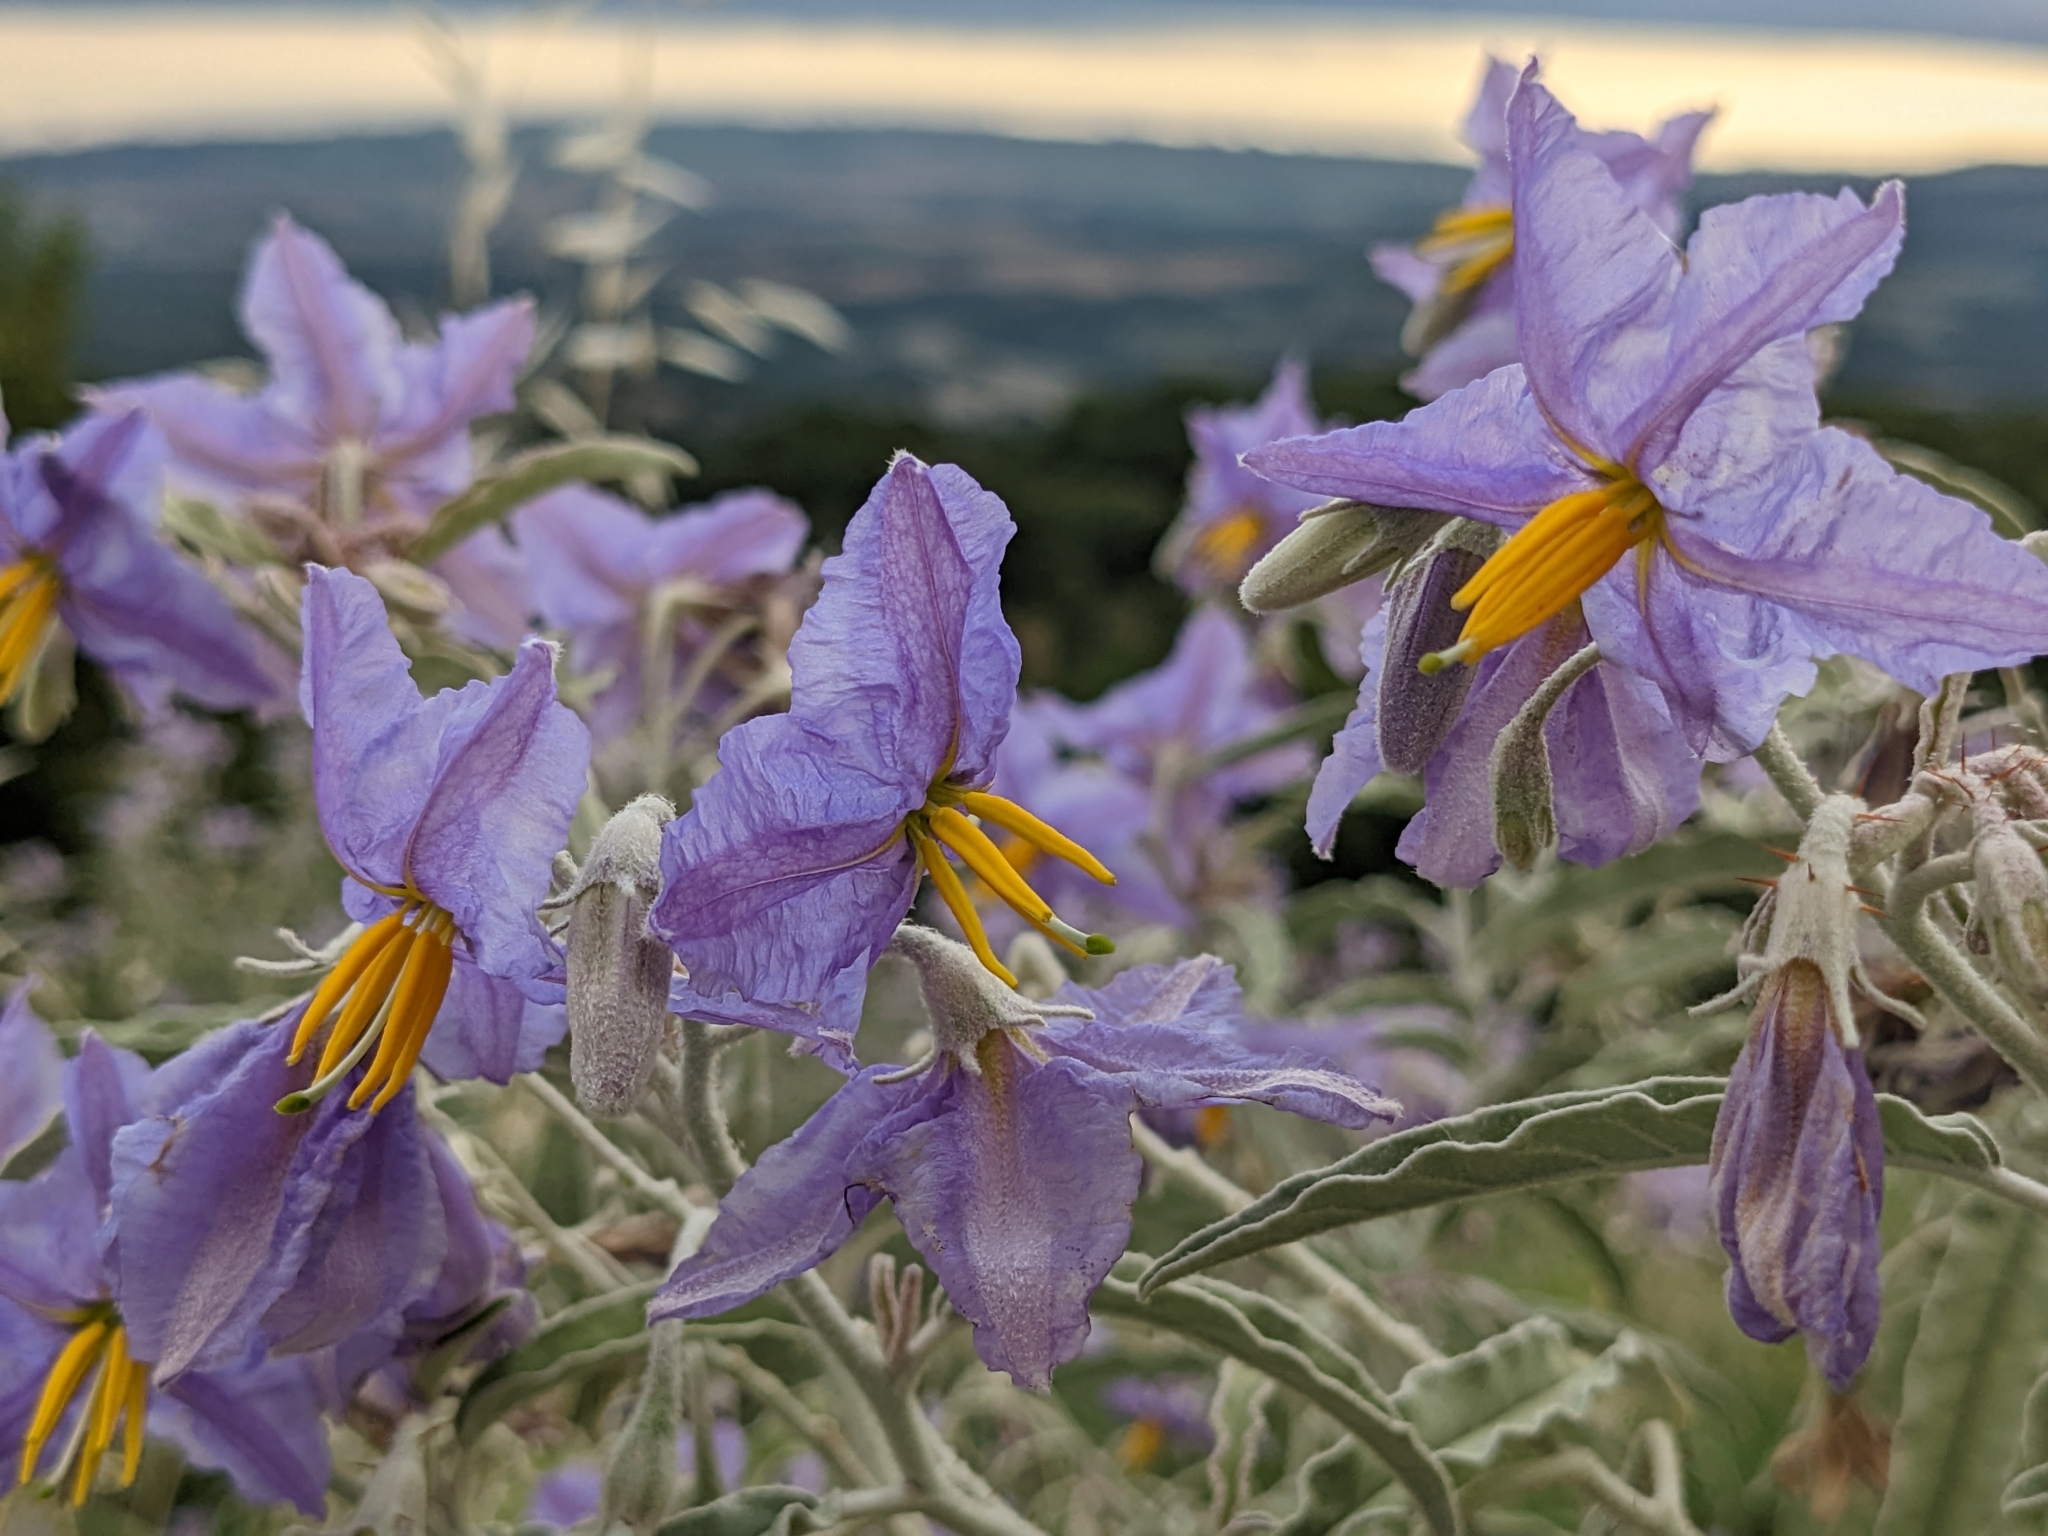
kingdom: Plantae
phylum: Tracheophyta
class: Magnoliopsida
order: Solanales
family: Solanaceae
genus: Solanum
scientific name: Solanum elaeagnifolium
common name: Silverleaf nightshade
